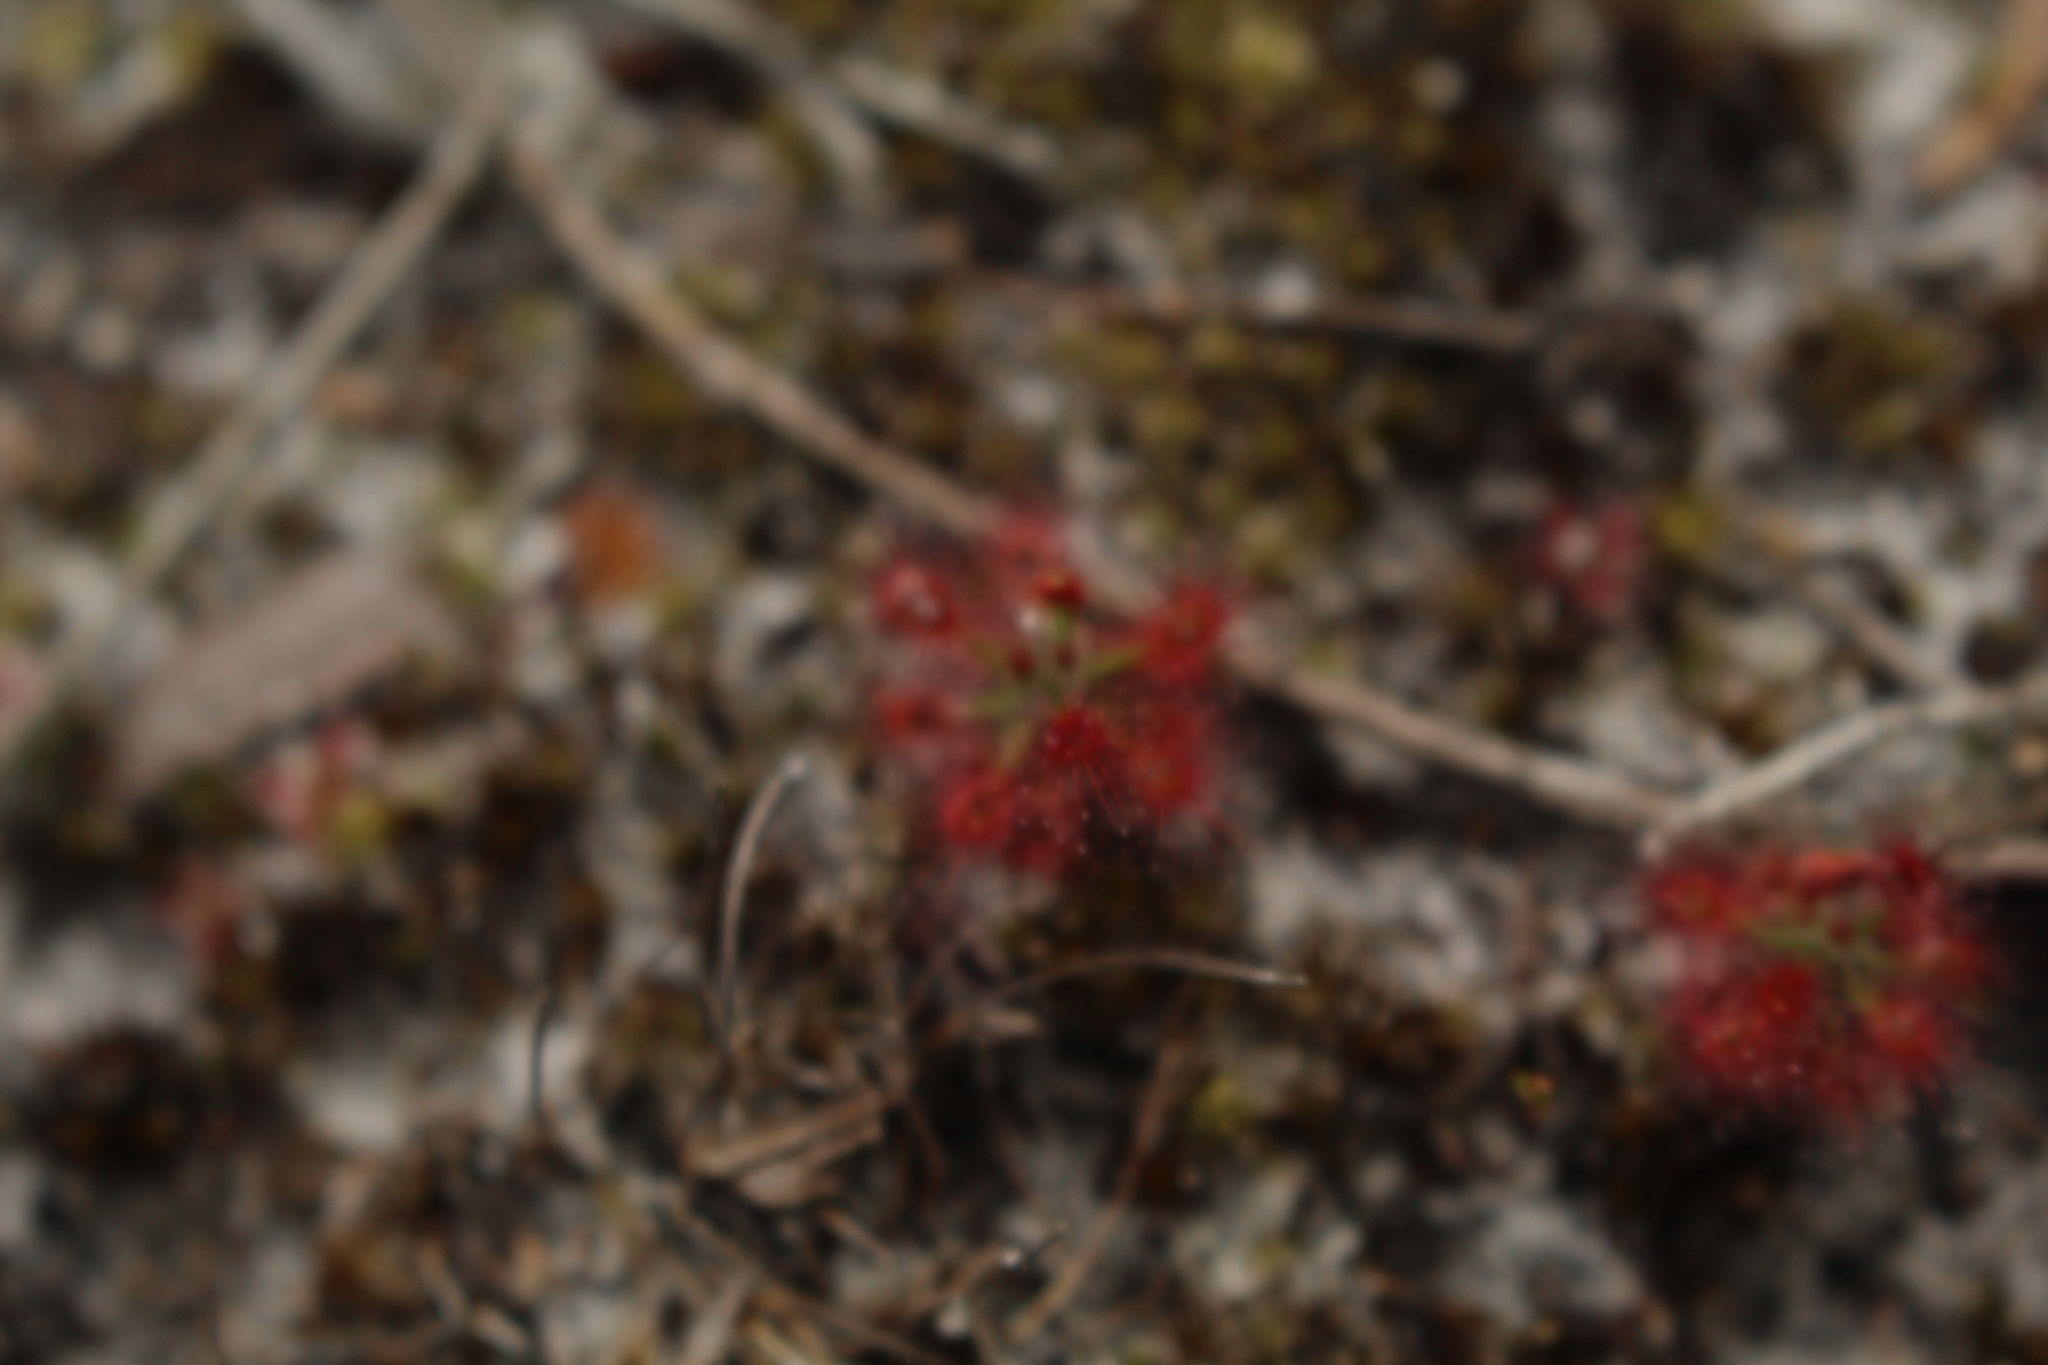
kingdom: Plantae
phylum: Tracheophyta
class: Magnoliopsida
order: Caryophyllales
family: Droseraceae
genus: Drosera
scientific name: Drosera paleacea
